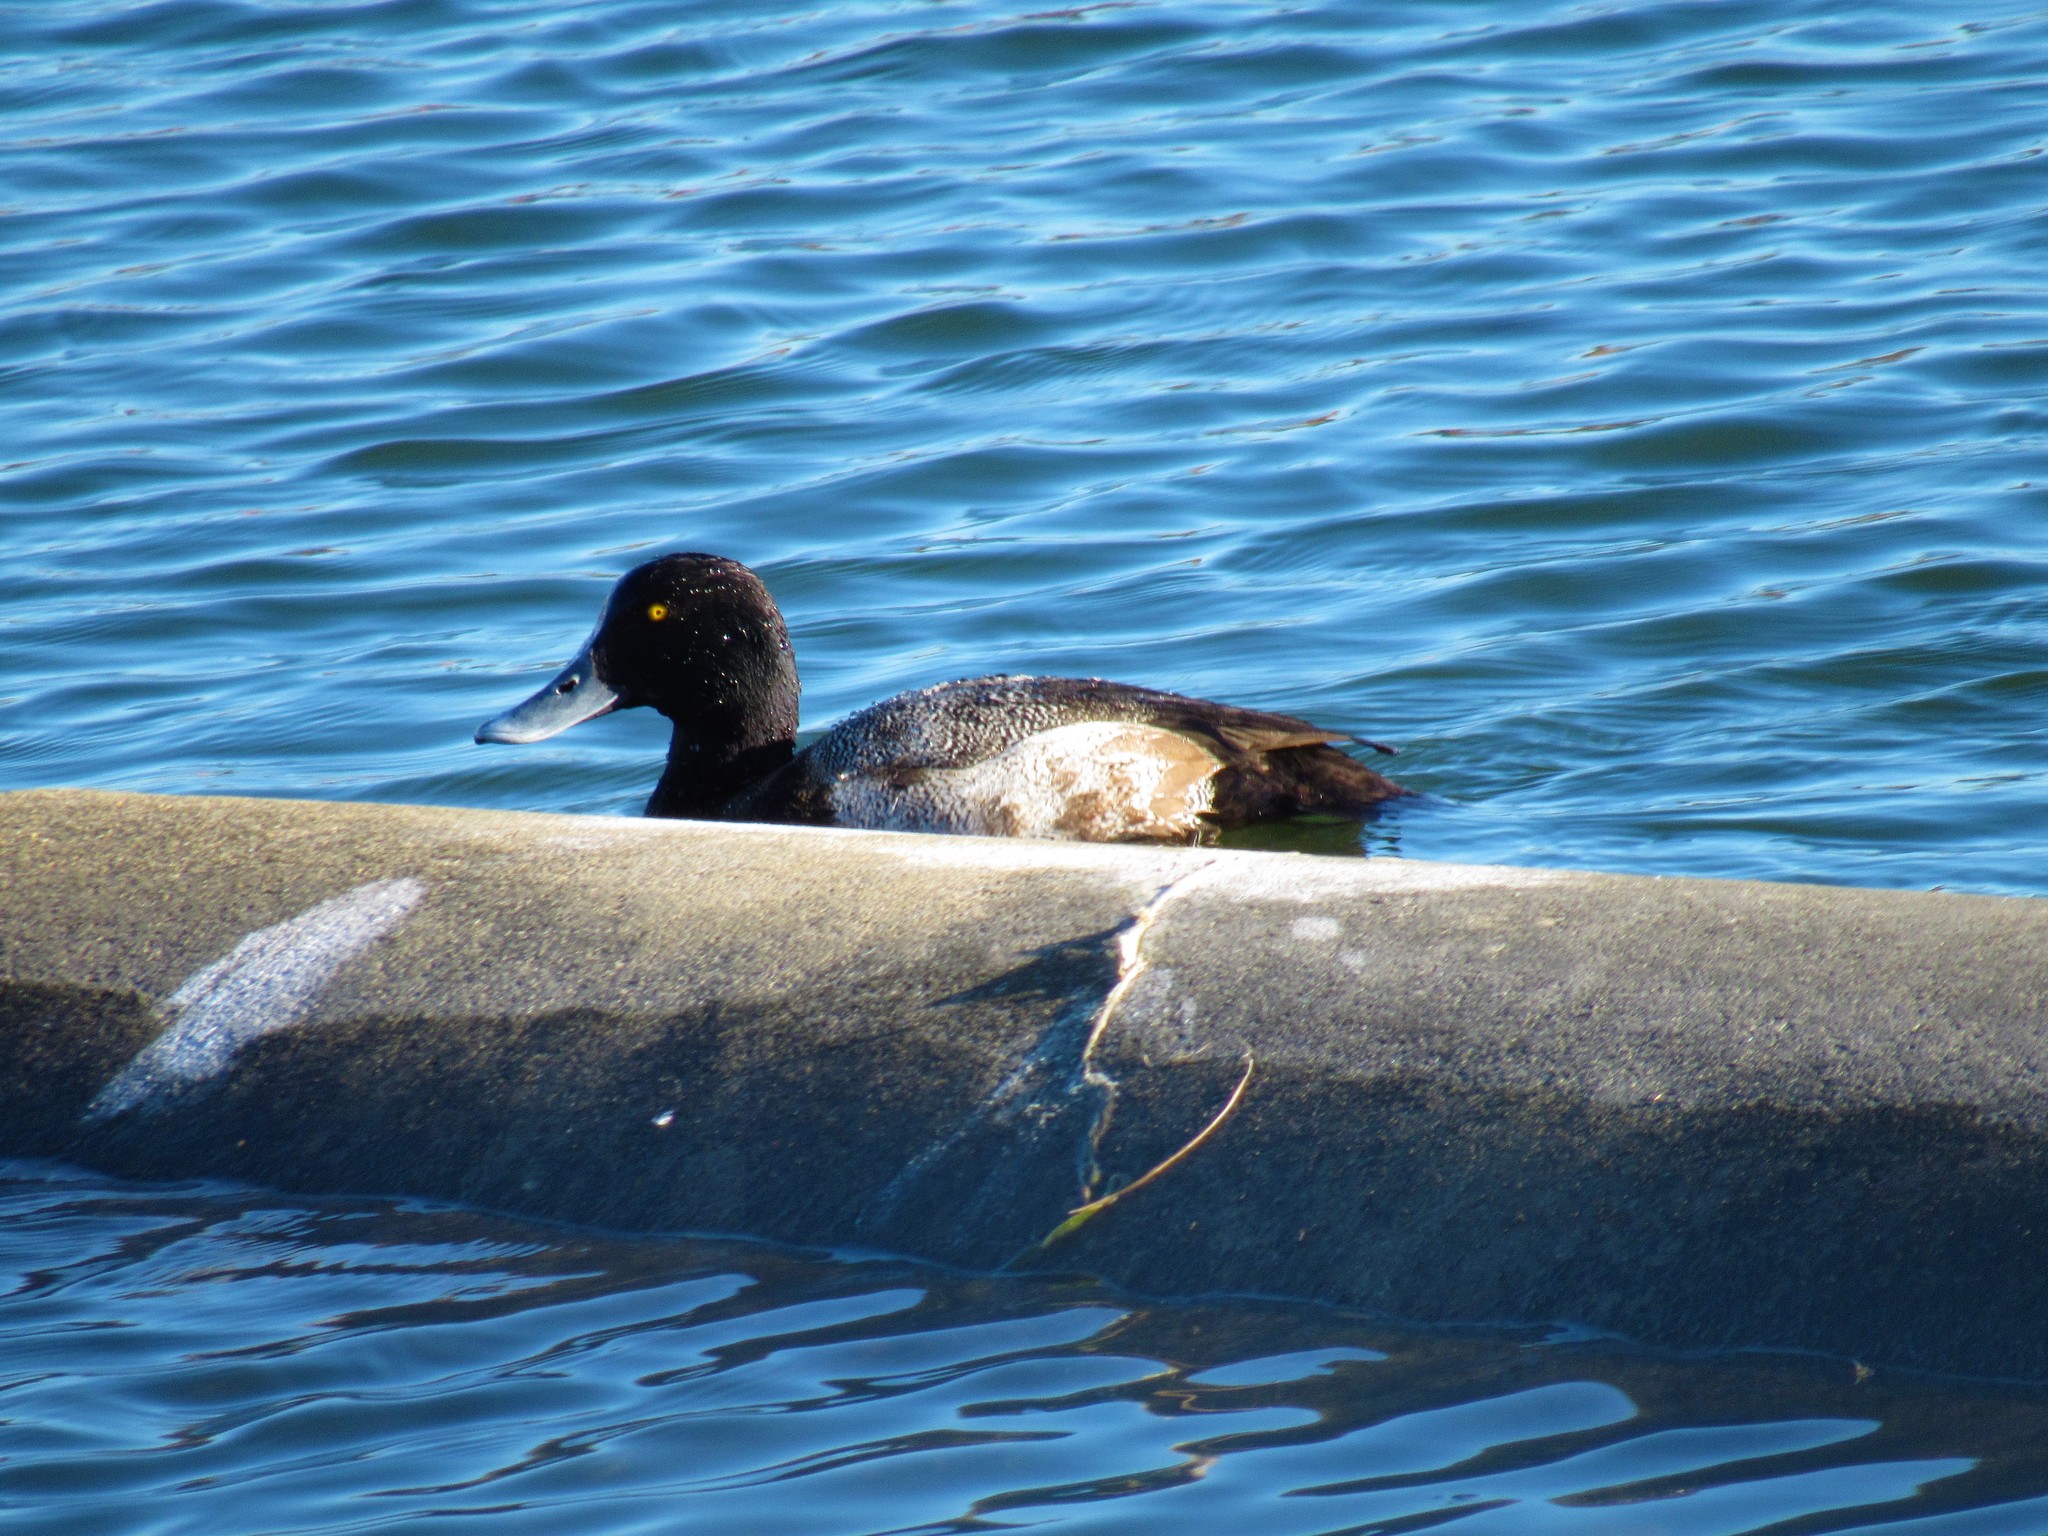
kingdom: Animalia
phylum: Chordata
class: Aves
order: Anseriformes
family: Anatidae
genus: Aythya
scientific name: Aythya affinis
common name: Lesser scaup
